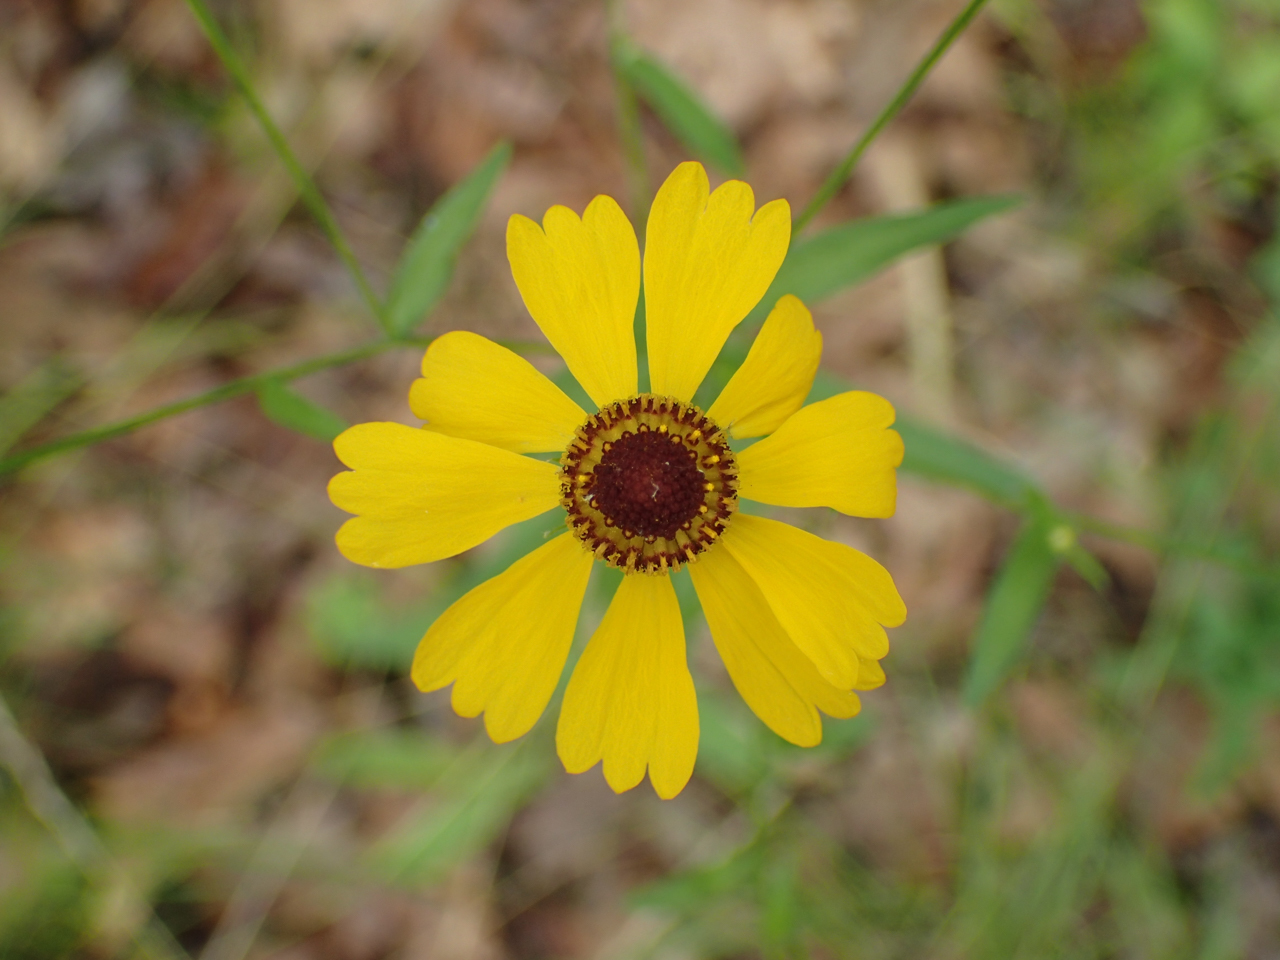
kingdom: Plantae
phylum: Tracheophyta
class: Magnoliopsida
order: Asterales
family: Asteraceae
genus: Helenium
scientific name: Helenium flexuosum
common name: Naked-flowered sneezeweed
